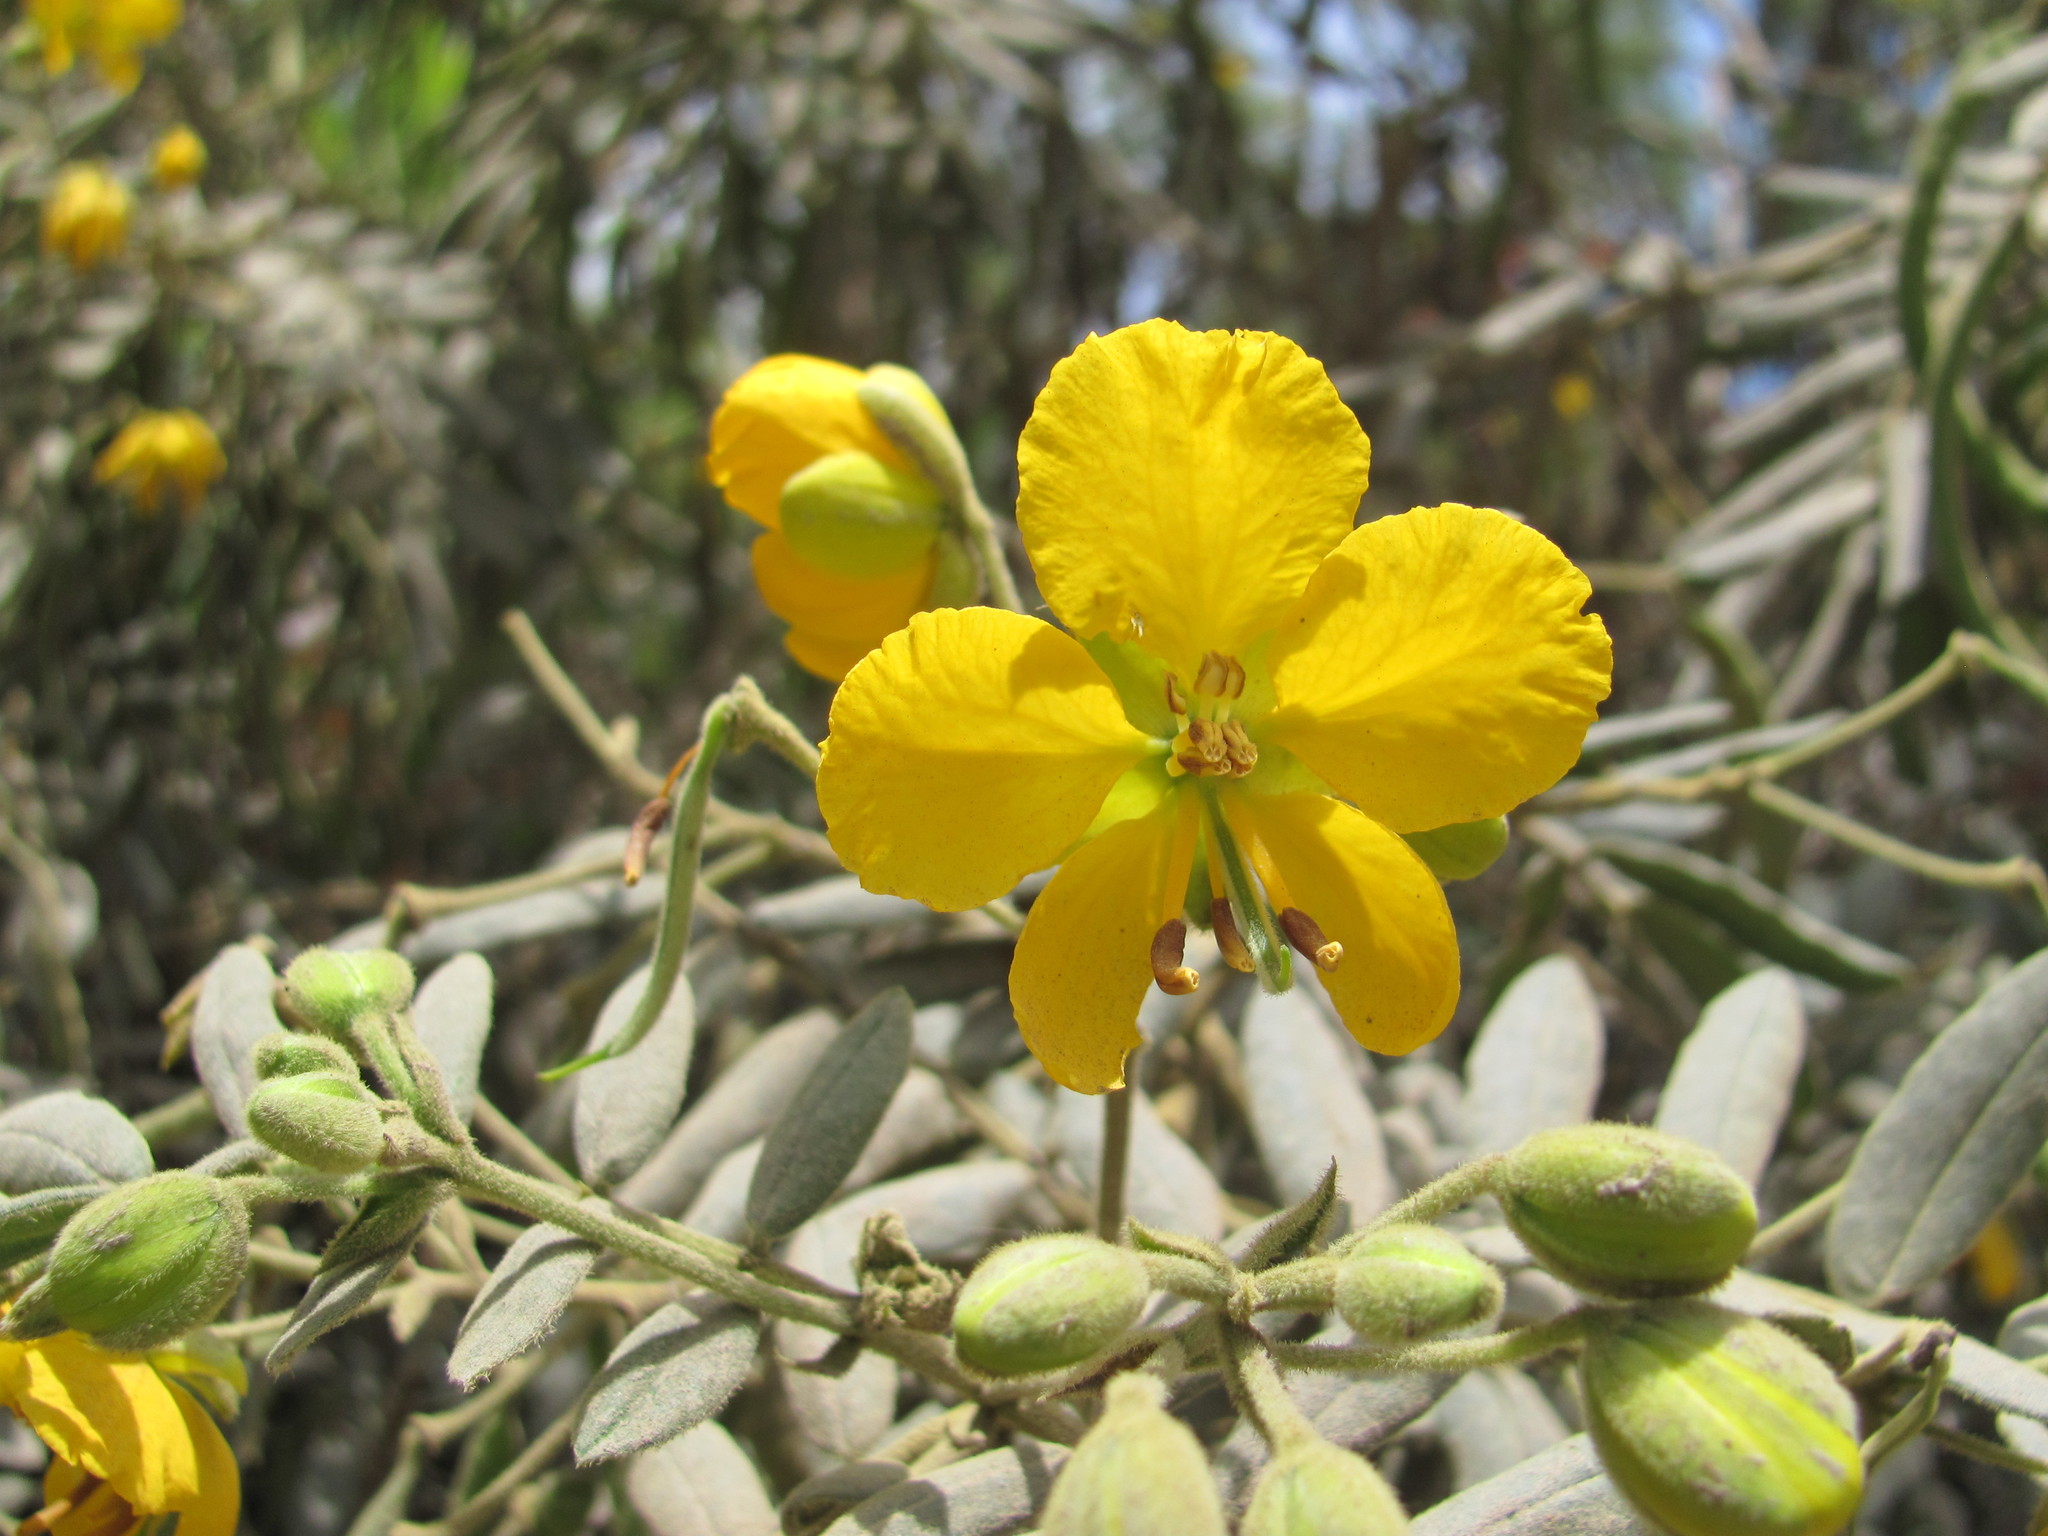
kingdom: Plantae
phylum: Tracheophyta
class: Magnoliopsida
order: Fabales
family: Fabaceae
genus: Senna
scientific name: Senna multiglandulosa
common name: Glandular senna
